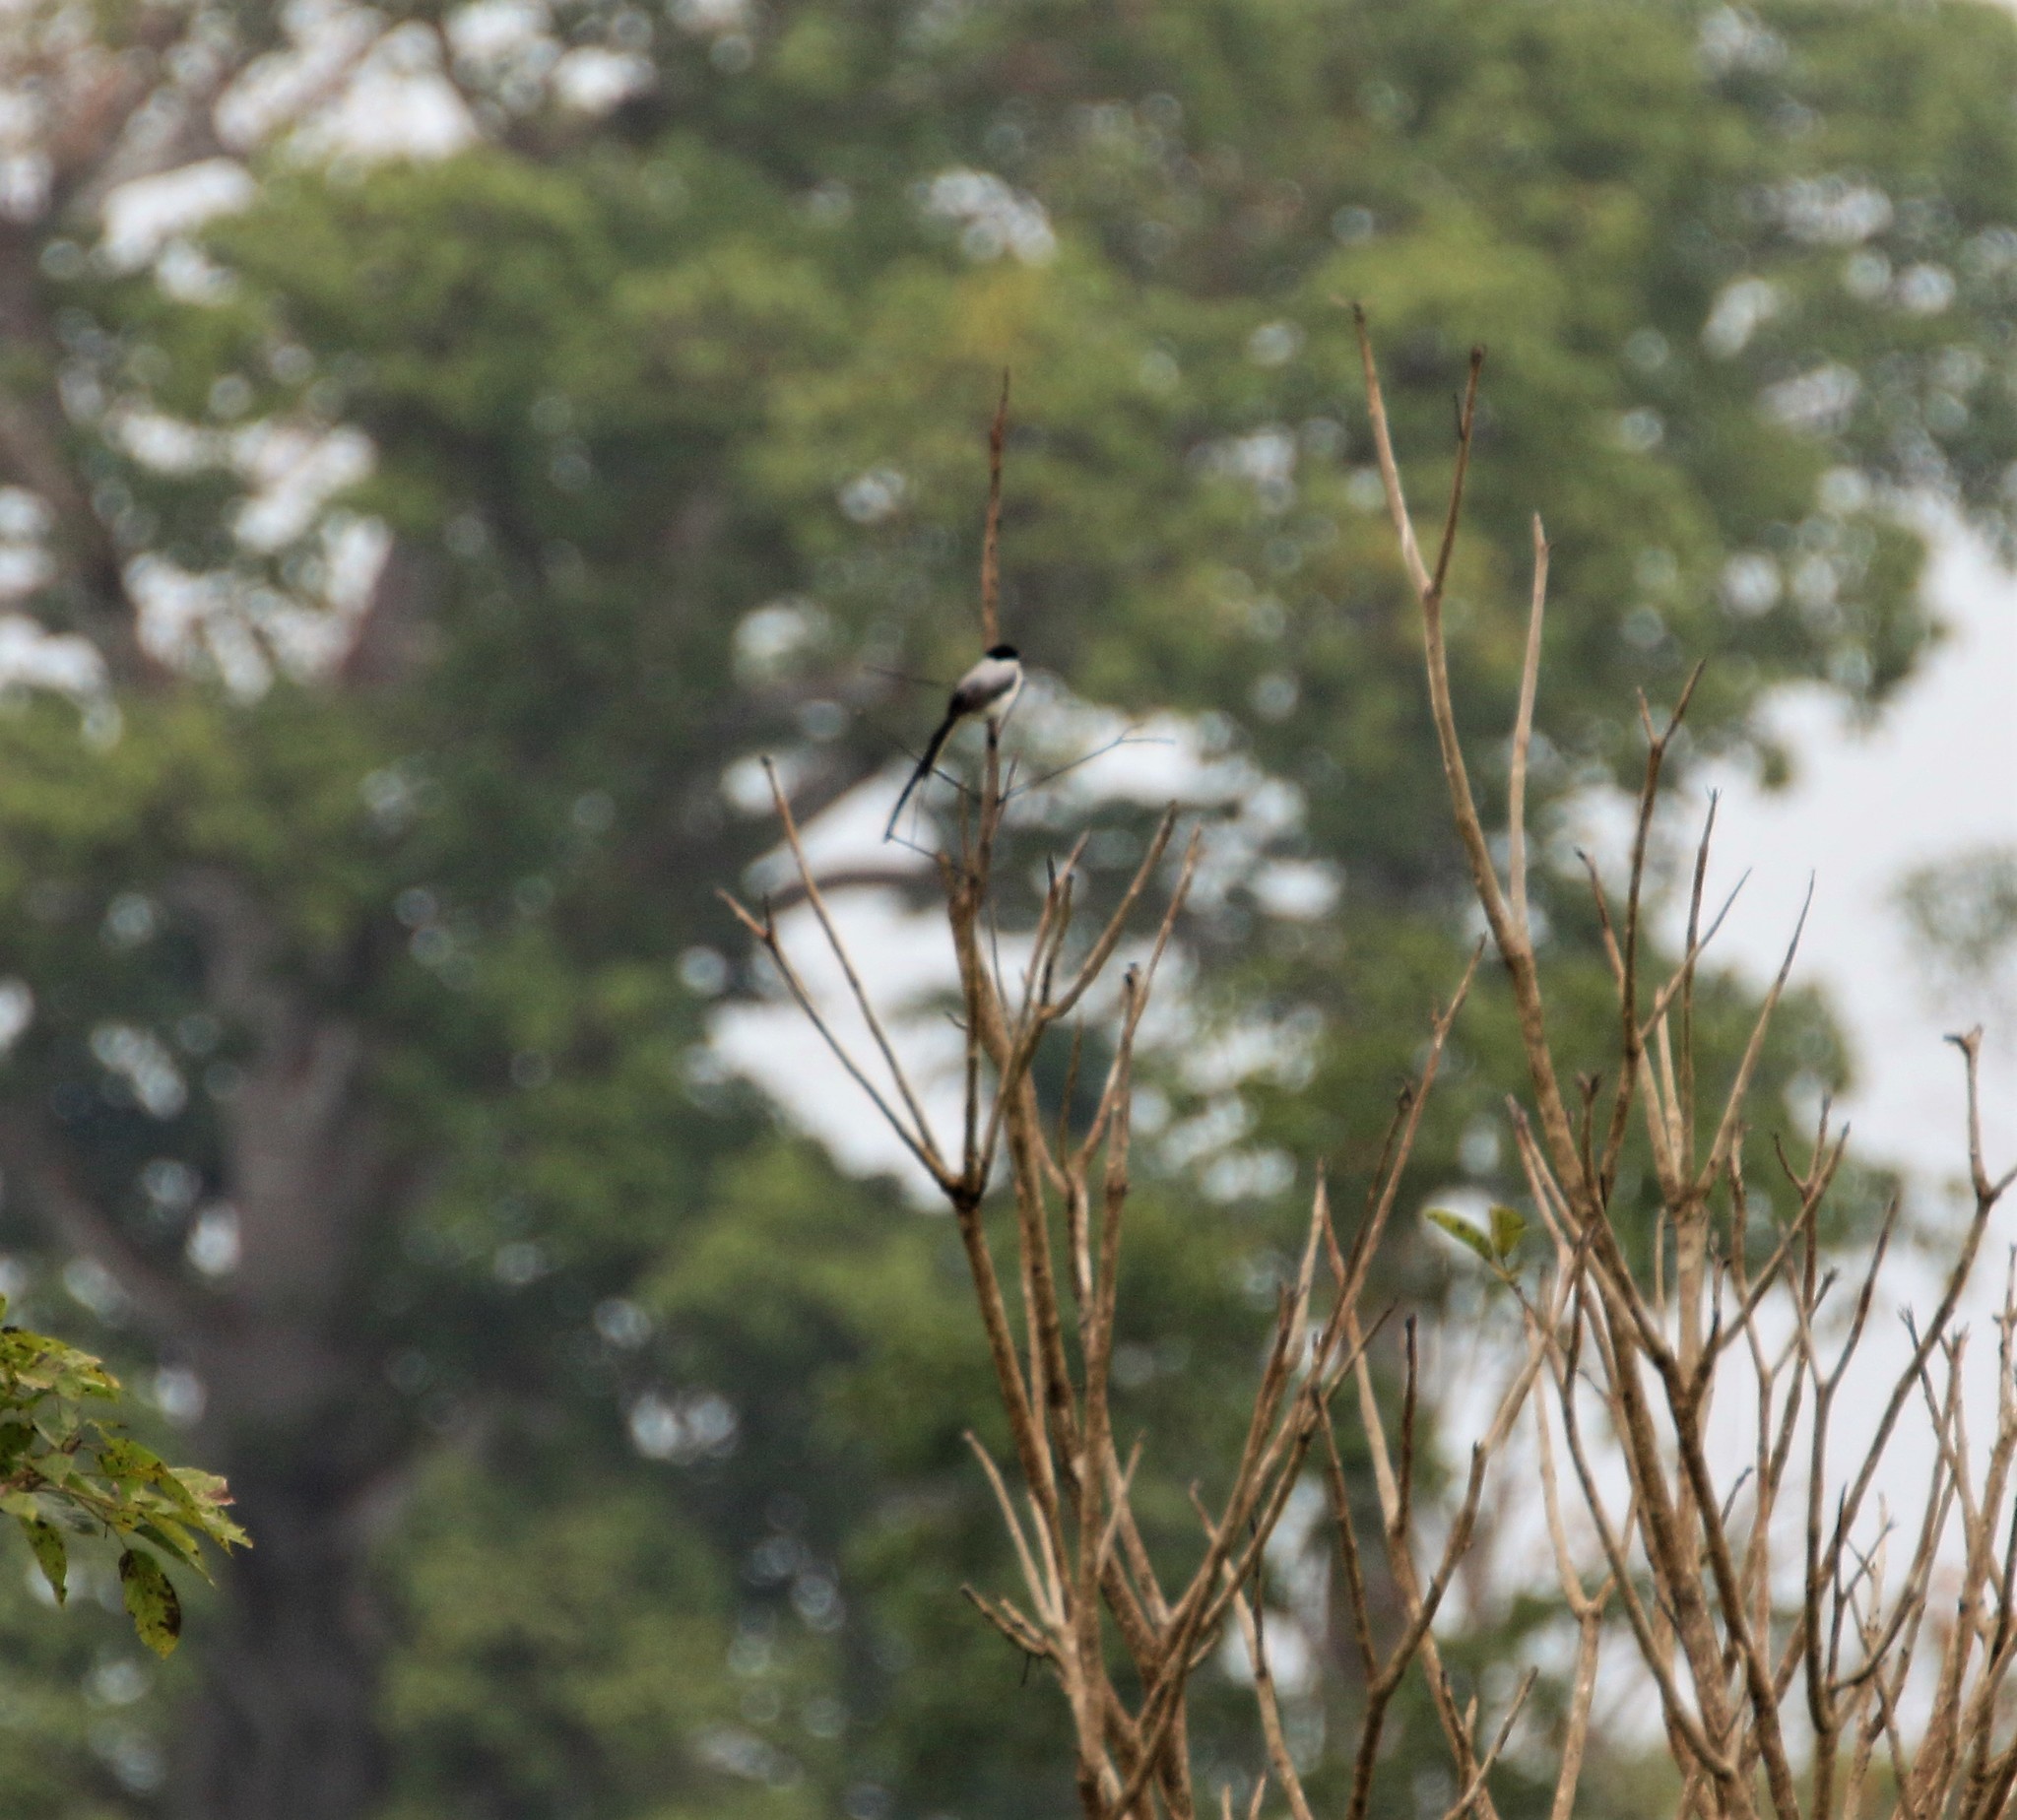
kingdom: Animalia
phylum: Chordata
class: Aves
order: Passeriformes
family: Tyrannidae
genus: Tyrannus
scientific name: Tyrannus savana
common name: Fork-tailed flycatcher
